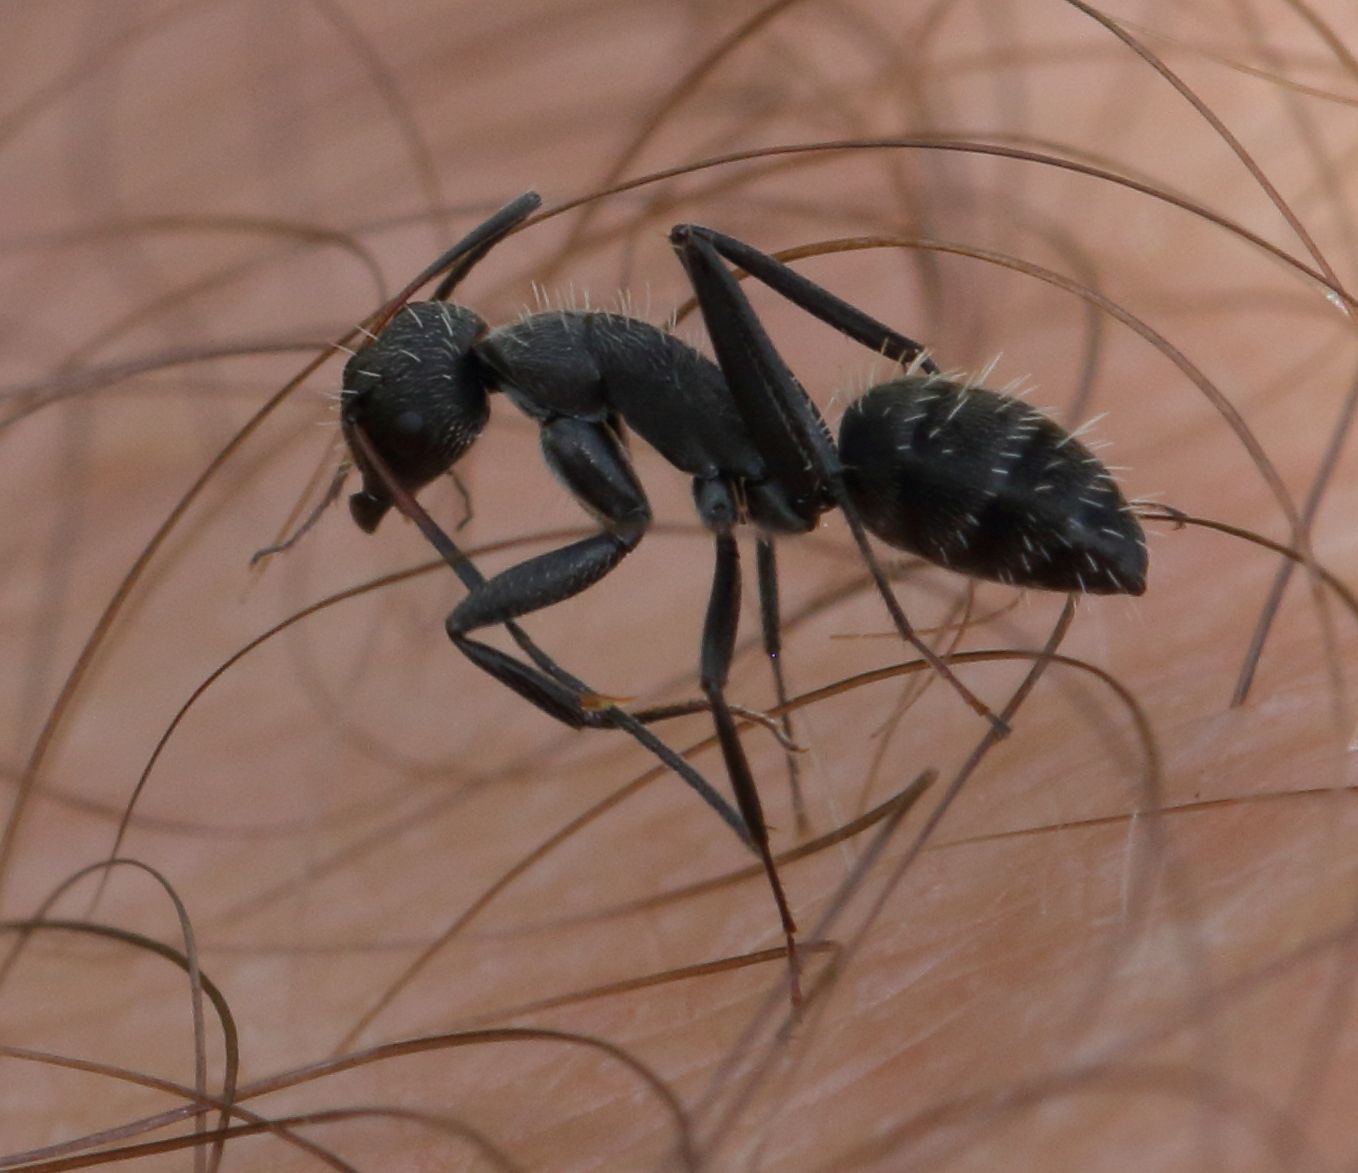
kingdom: Animalia
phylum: Arthropoda
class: Insecta
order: Hymenoptera
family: Formicidae
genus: Camponotus
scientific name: Camponotus niveosetosus
